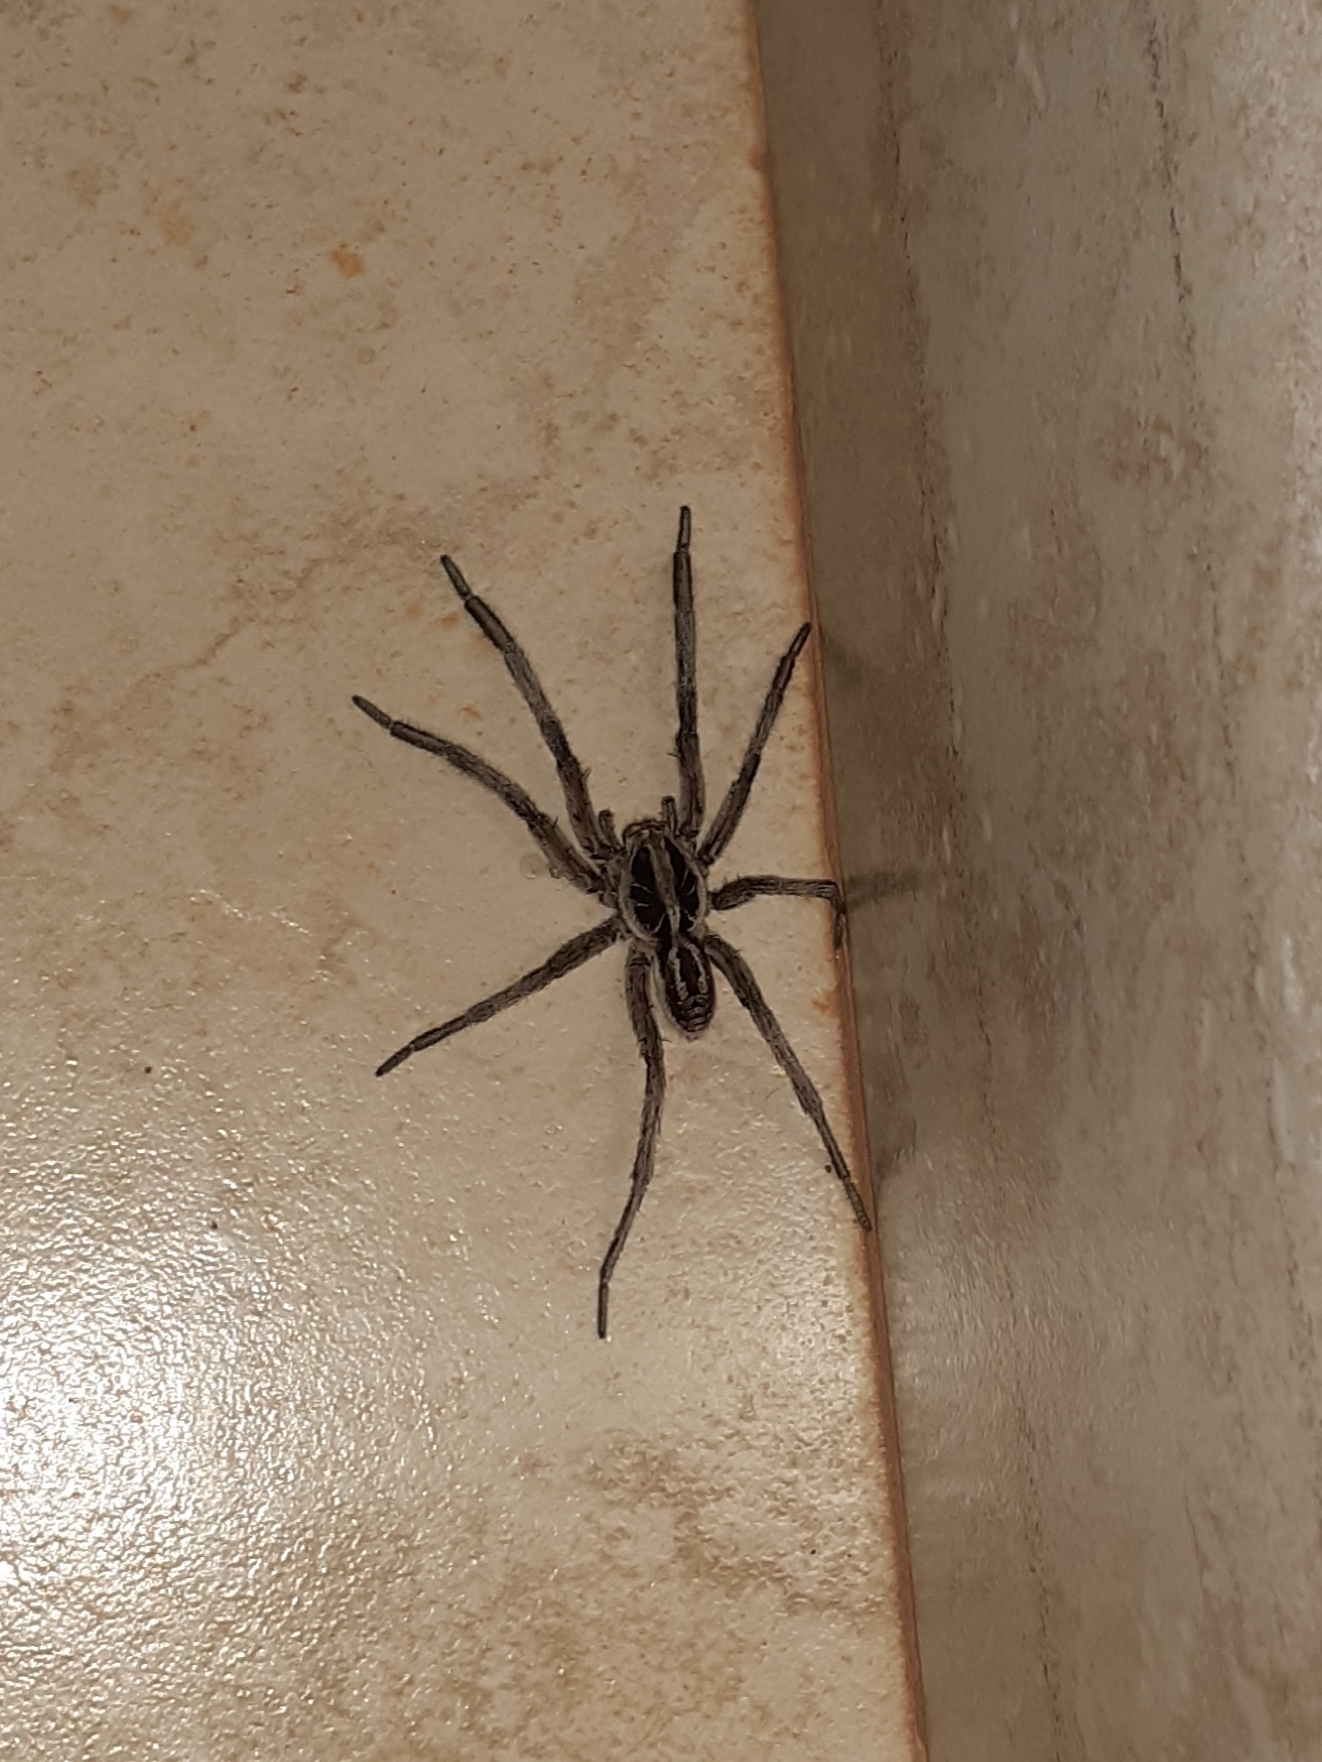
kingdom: Animalia
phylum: Arthropoda
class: Arachnida
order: Araneae
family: Lycosidae
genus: Lycosa
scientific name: Lycosa erythrognatha
